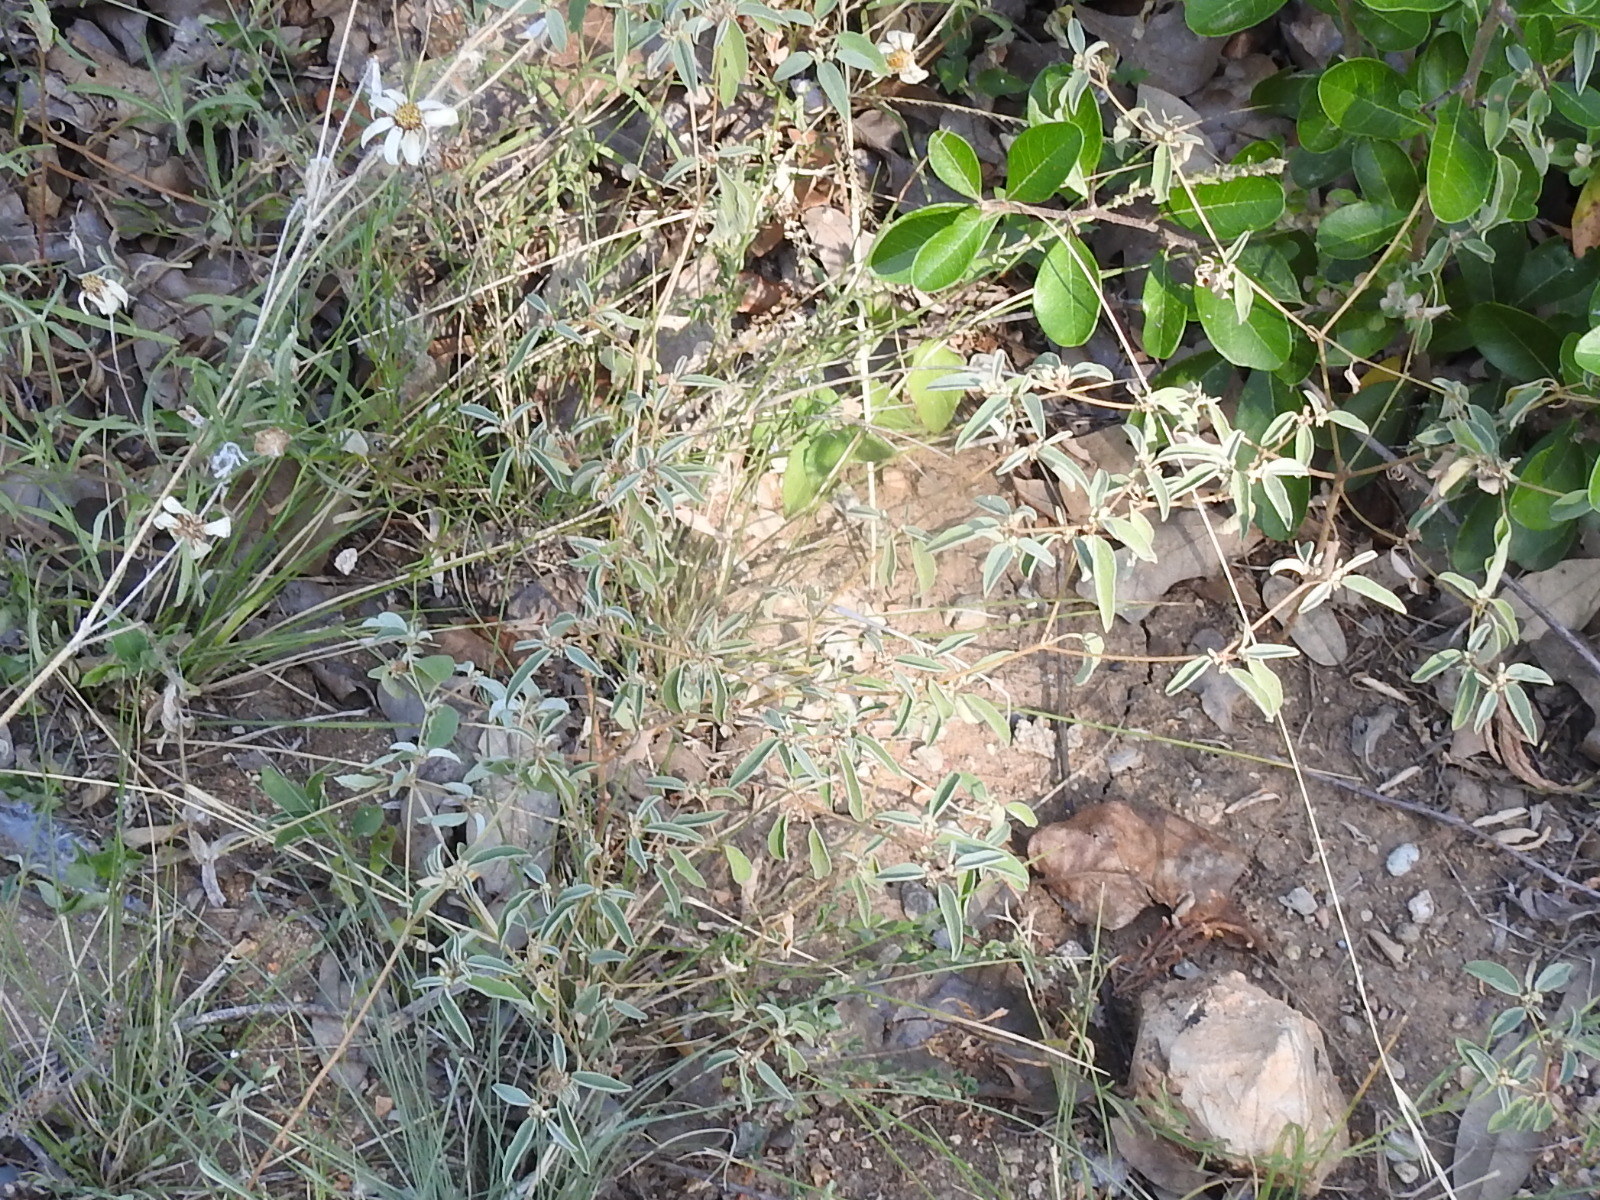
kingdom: Plantae
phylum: Tracheophyta
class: Magnoliopsida
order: Malpighiales
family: Euphorbiaceae
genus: Croton
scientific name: Croton monanthogynus
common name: One-seed croton
